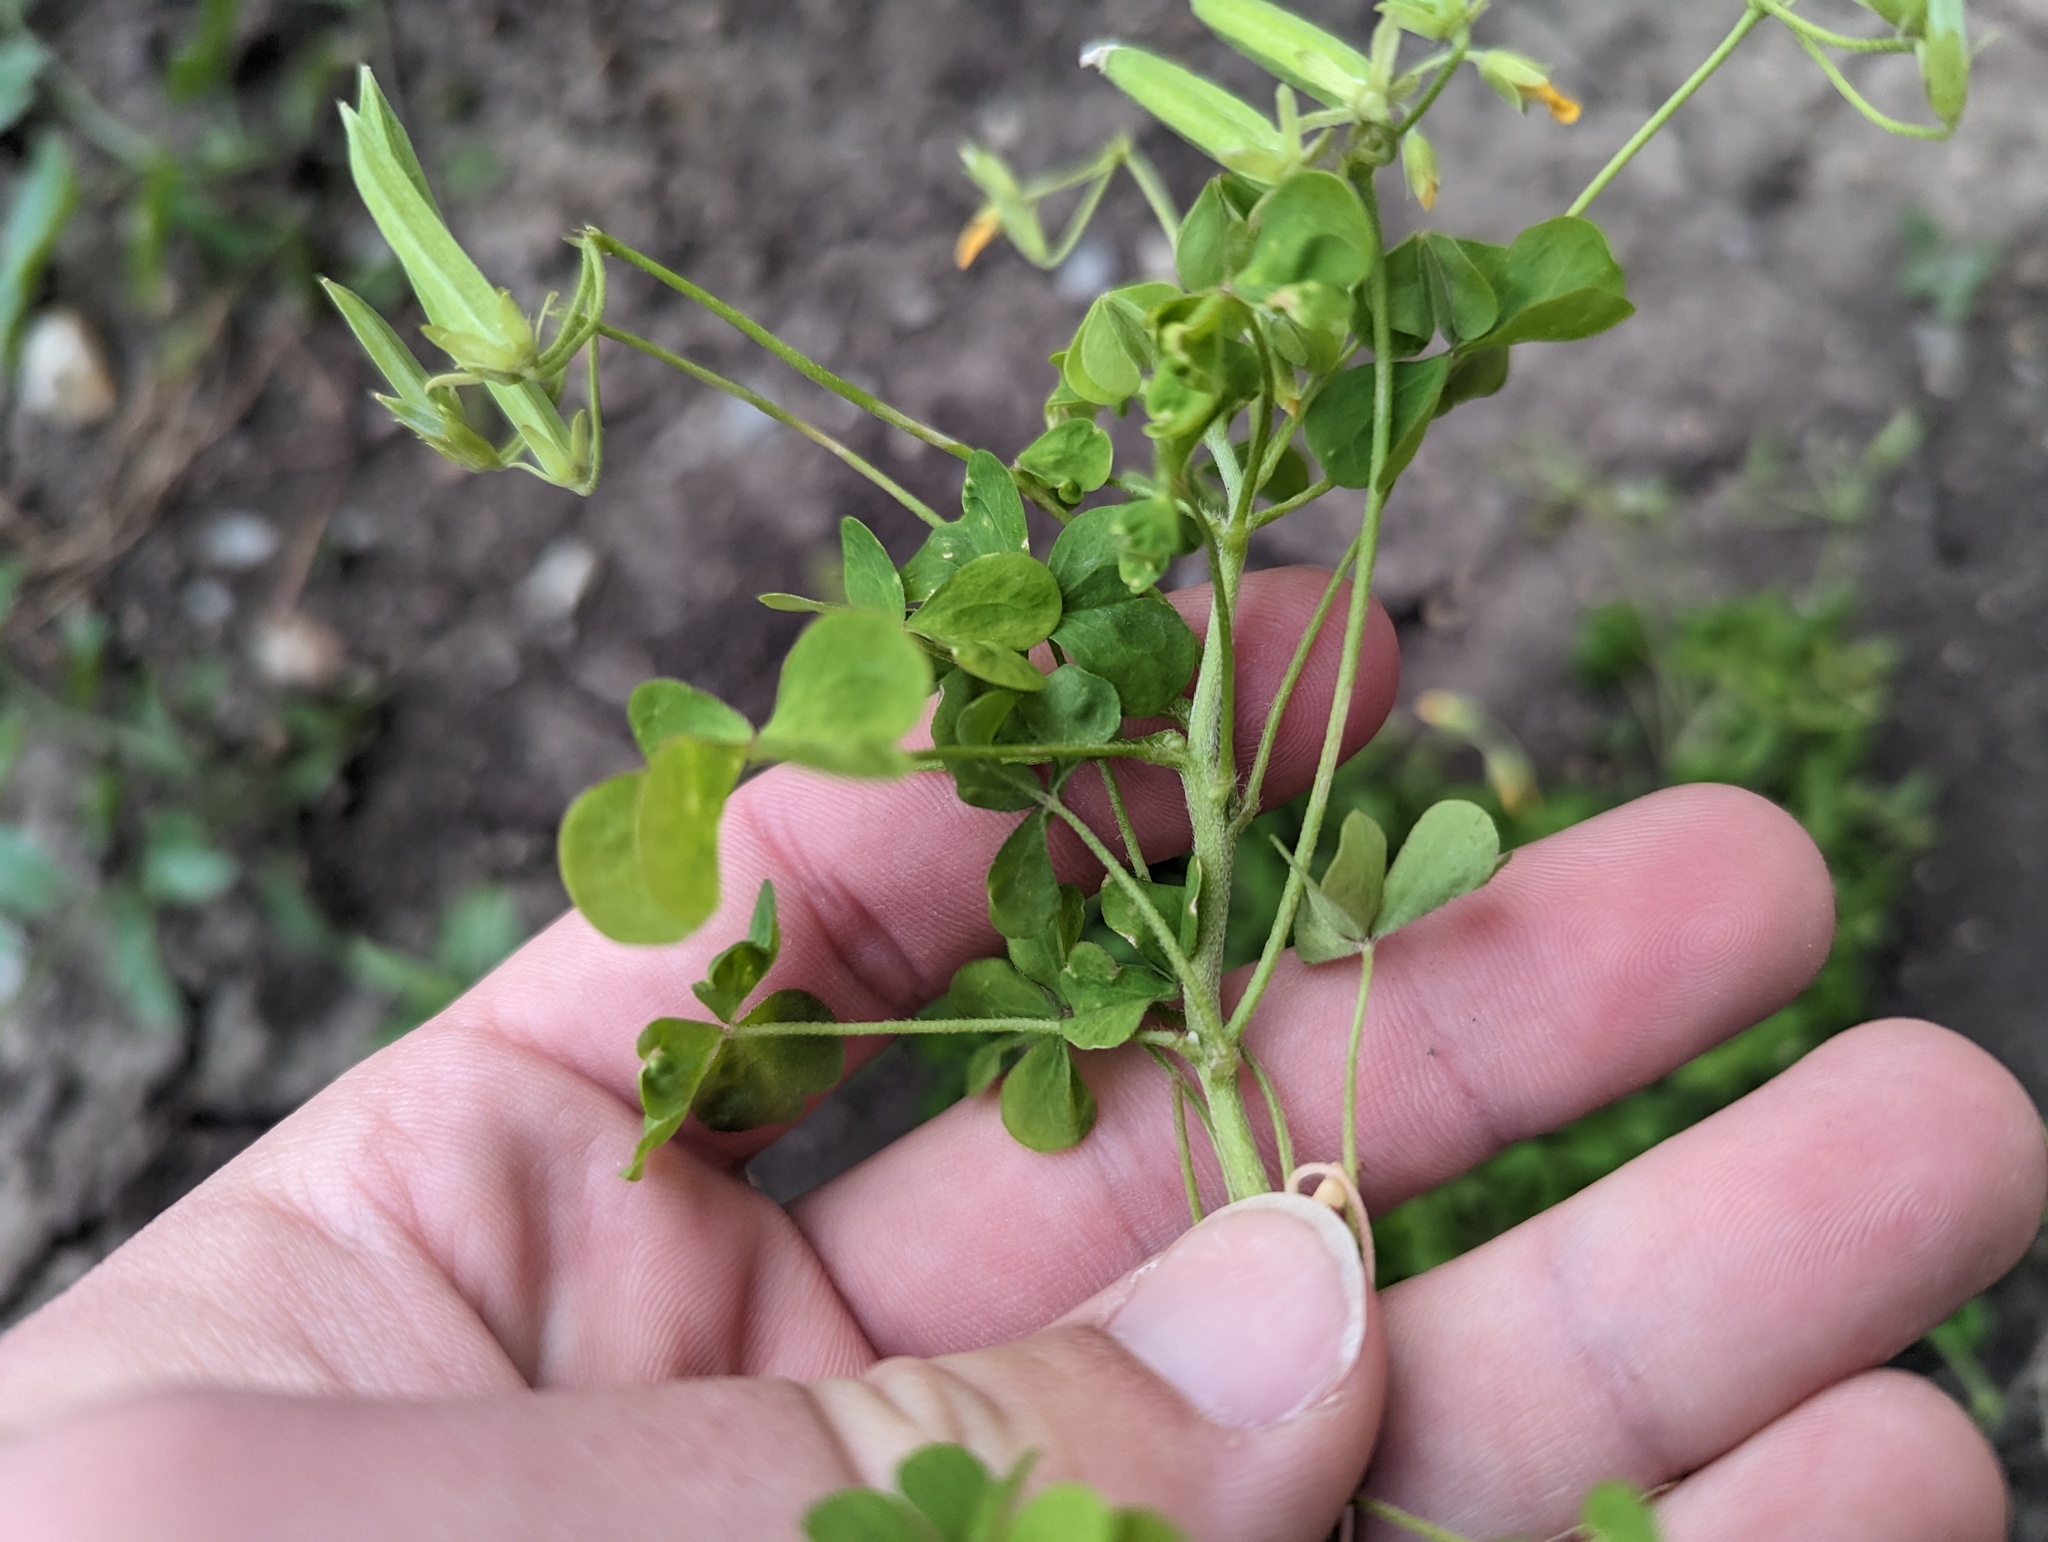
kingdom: Plantae
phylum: Tracheophyta
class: Magnoliopsida
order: Oxalidales
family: Oxalidaceae
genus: Oxalis
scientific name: Oxalis dillenii
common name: Sussex yellow-sorrel
